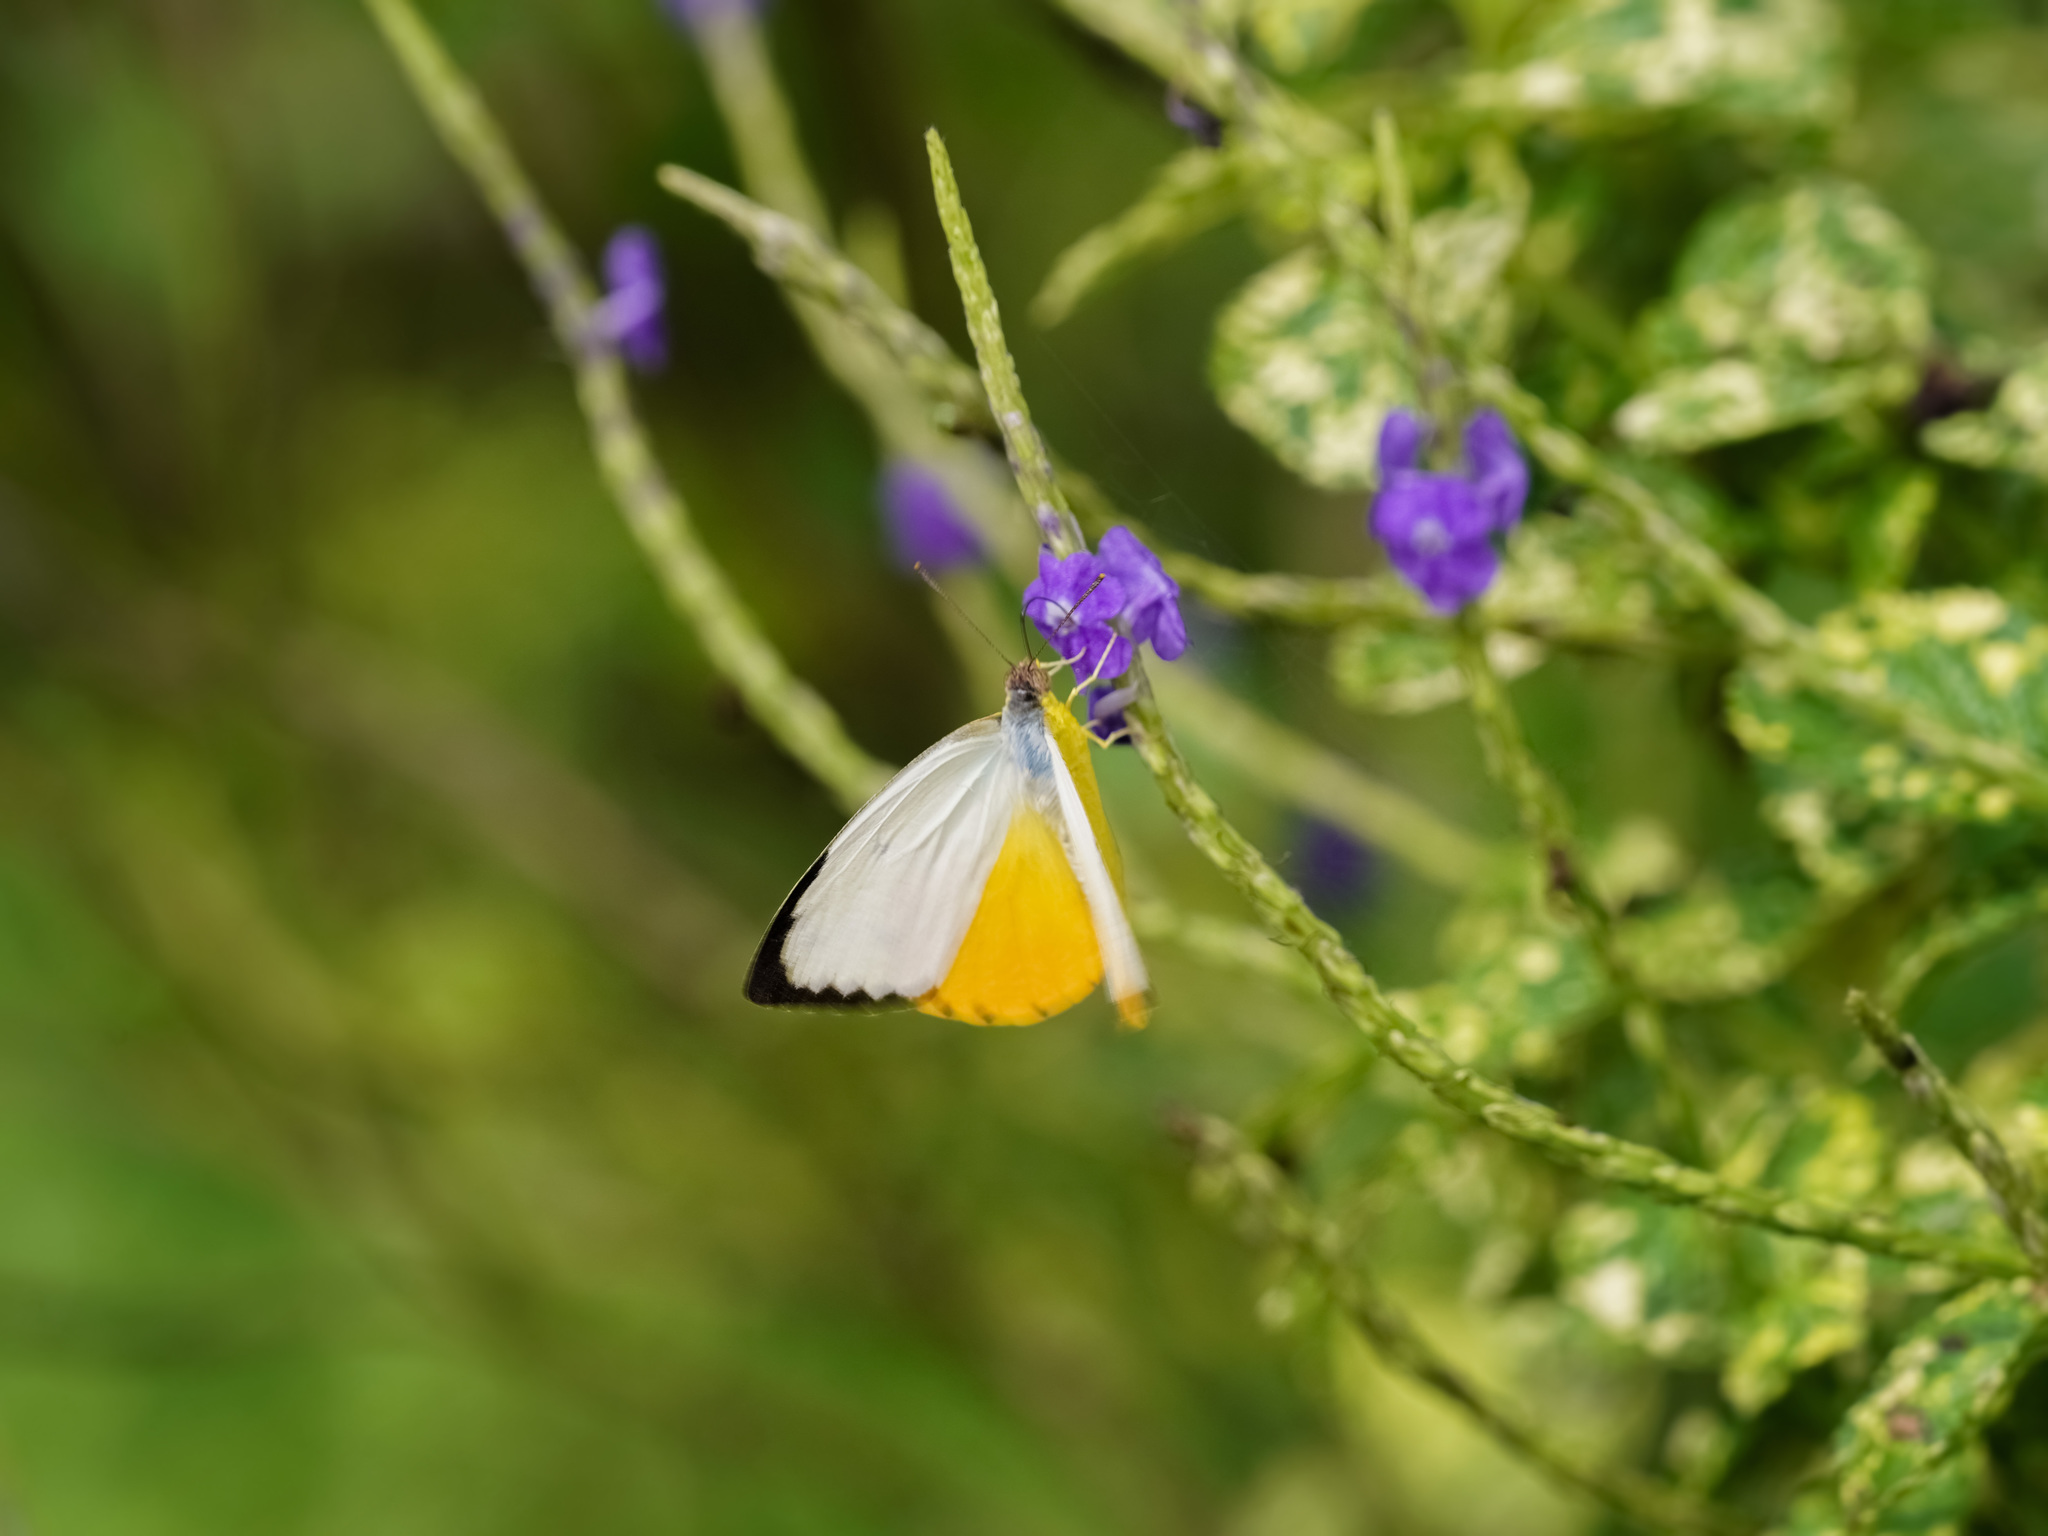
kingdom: Animalia
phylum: Arthropoda
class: Insecta
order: Lepidoptera
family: Pieridae
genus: Catopsilia
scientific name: Catopsilia scylla
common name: Orange emigrant
